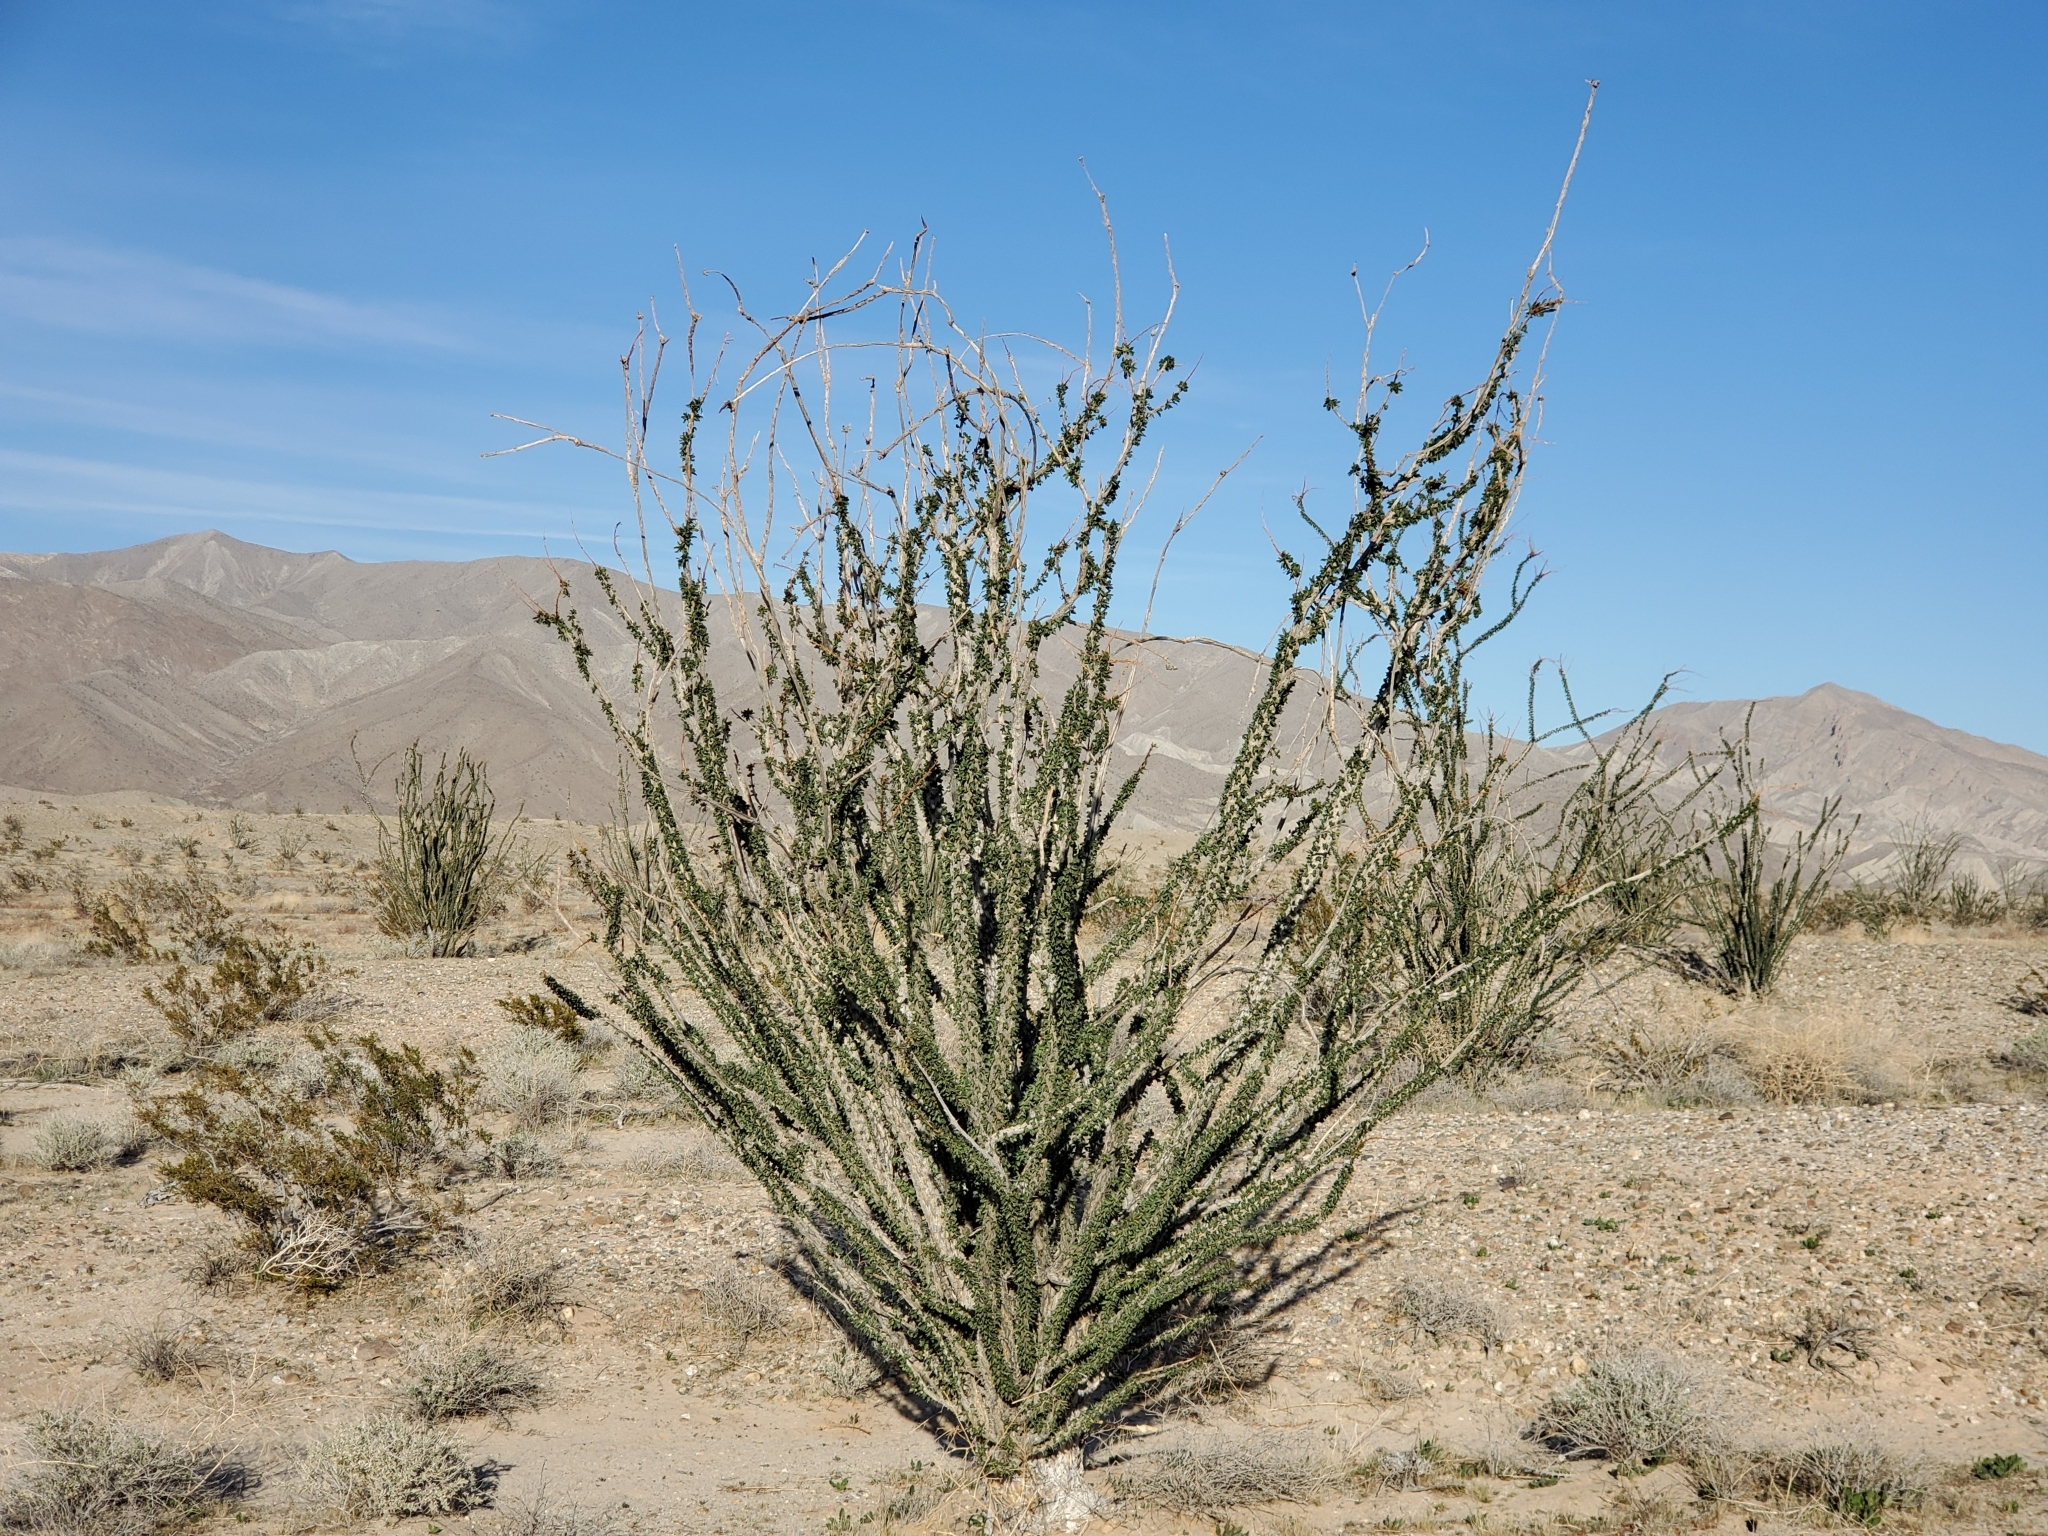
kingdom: Plantae
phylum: Tracheophyta
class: Magnoliopsida
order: Ericales
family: Fouquieriaceae
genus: Fouquieria
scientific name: Fouquieria splendens
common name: Vine-cactus
